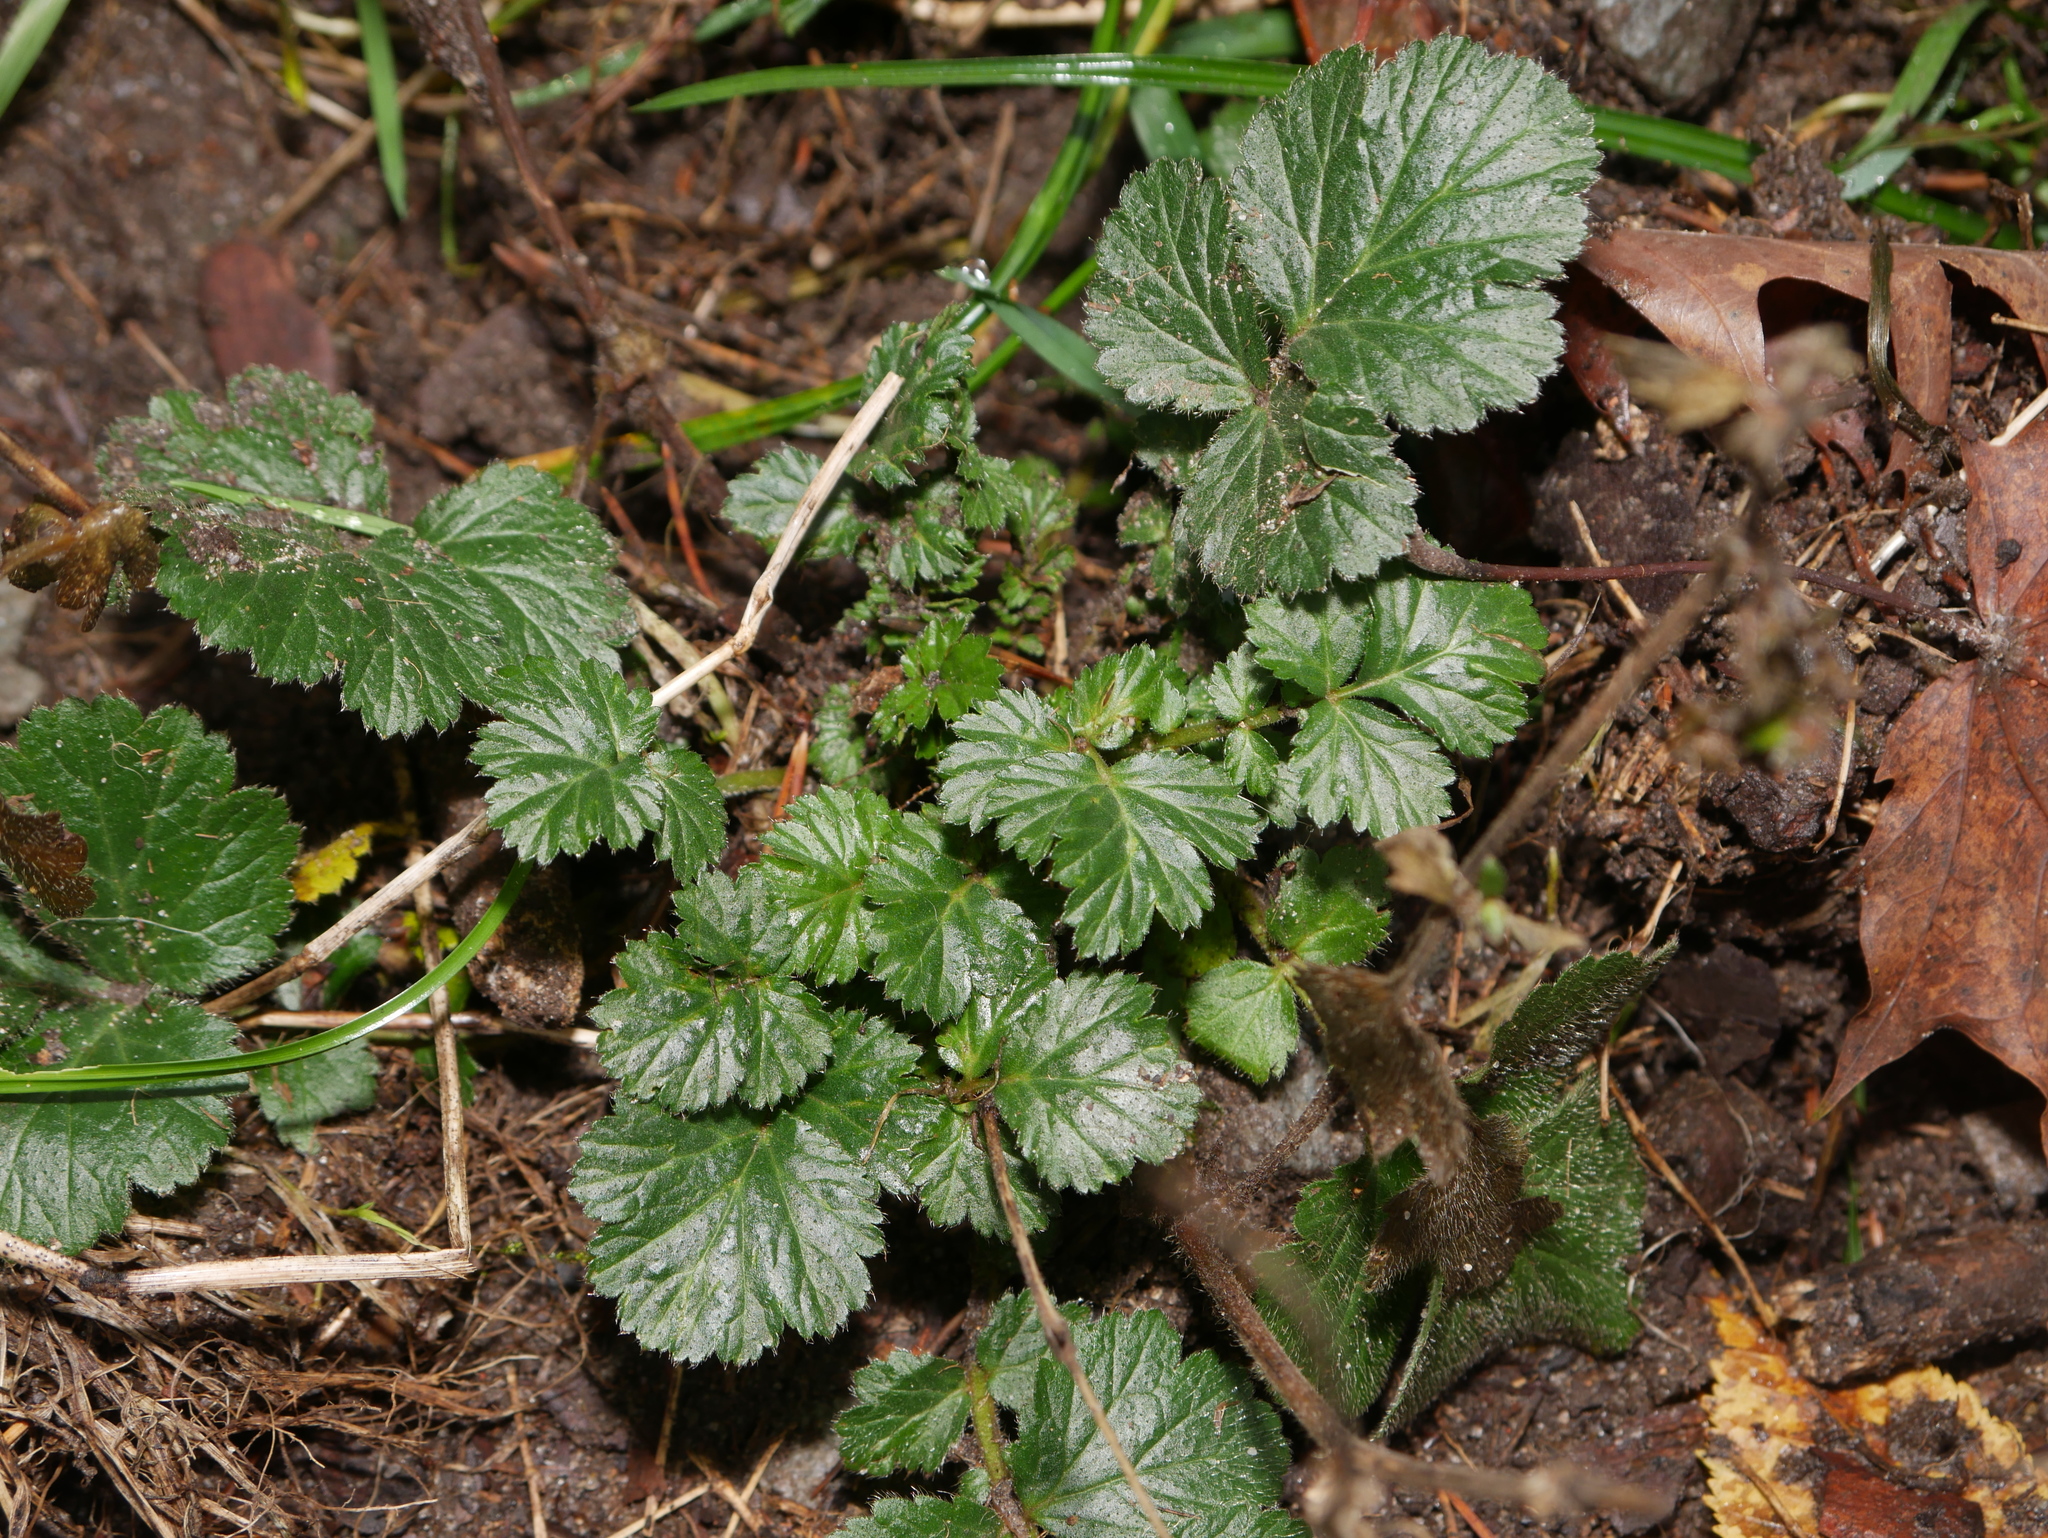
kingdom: Plantae
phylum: Tracheophyta
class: Magnoliopsida
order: Rosales
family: Rosaceae
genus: Geum
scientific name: Geum urbanum
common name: Wood avens
